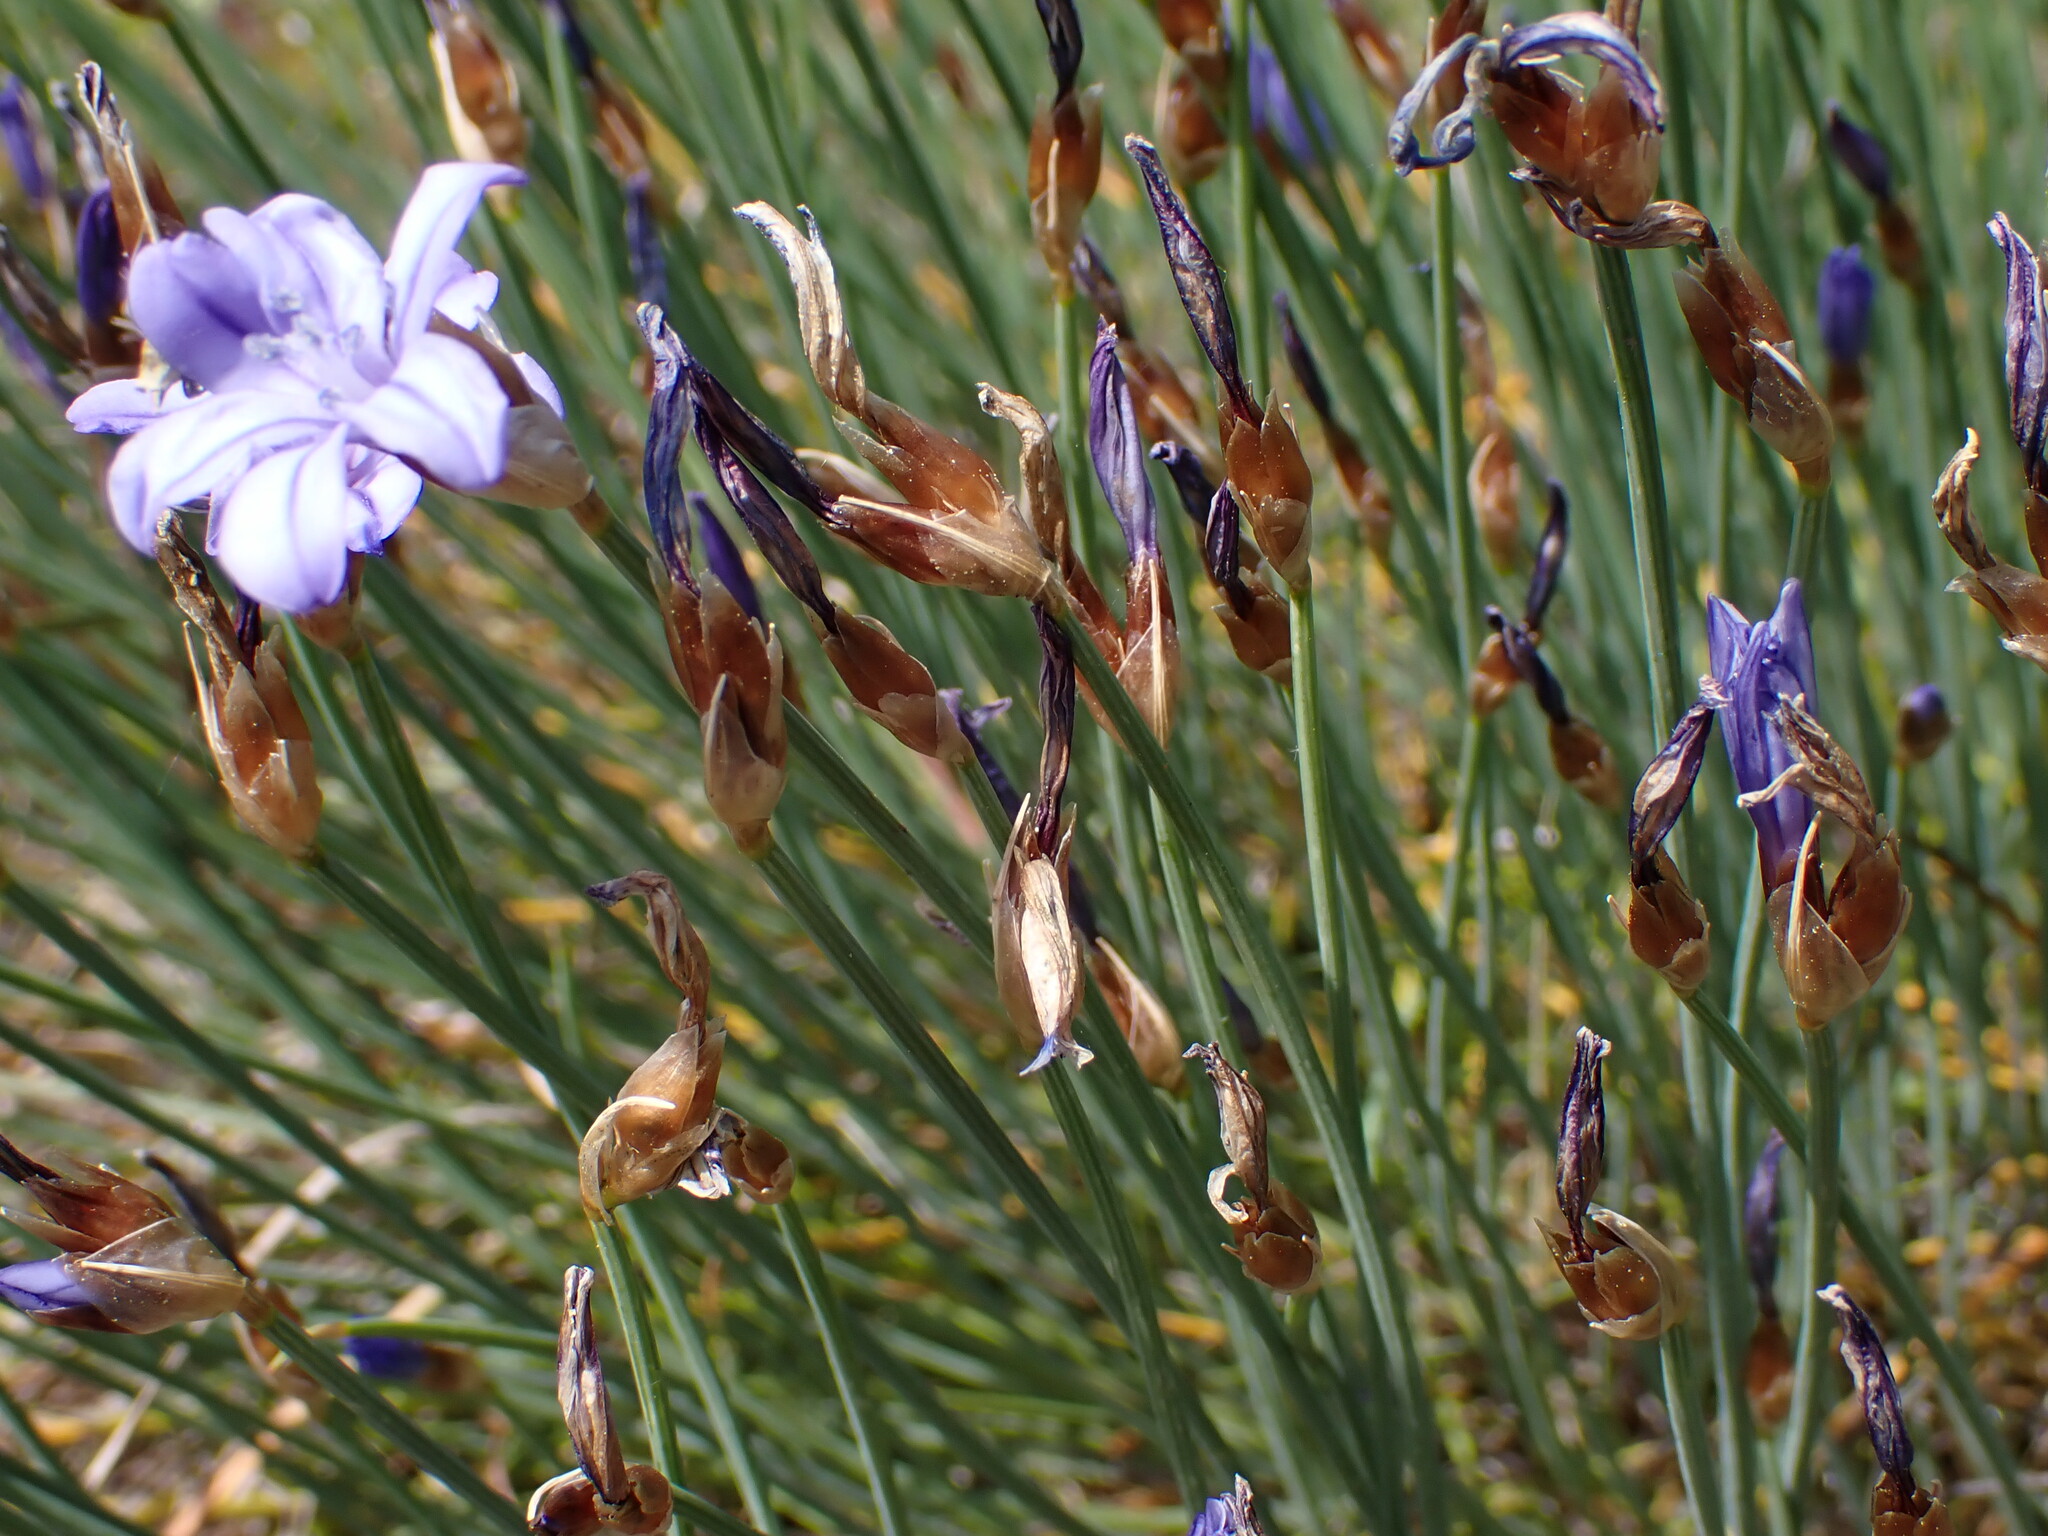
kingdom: Plantae
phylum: Tracheophyta
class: Liliopsida
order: Asparagales
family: Asparagaceae
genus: Aphyllanthes
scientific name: Aphyllanthes monspeliensis
